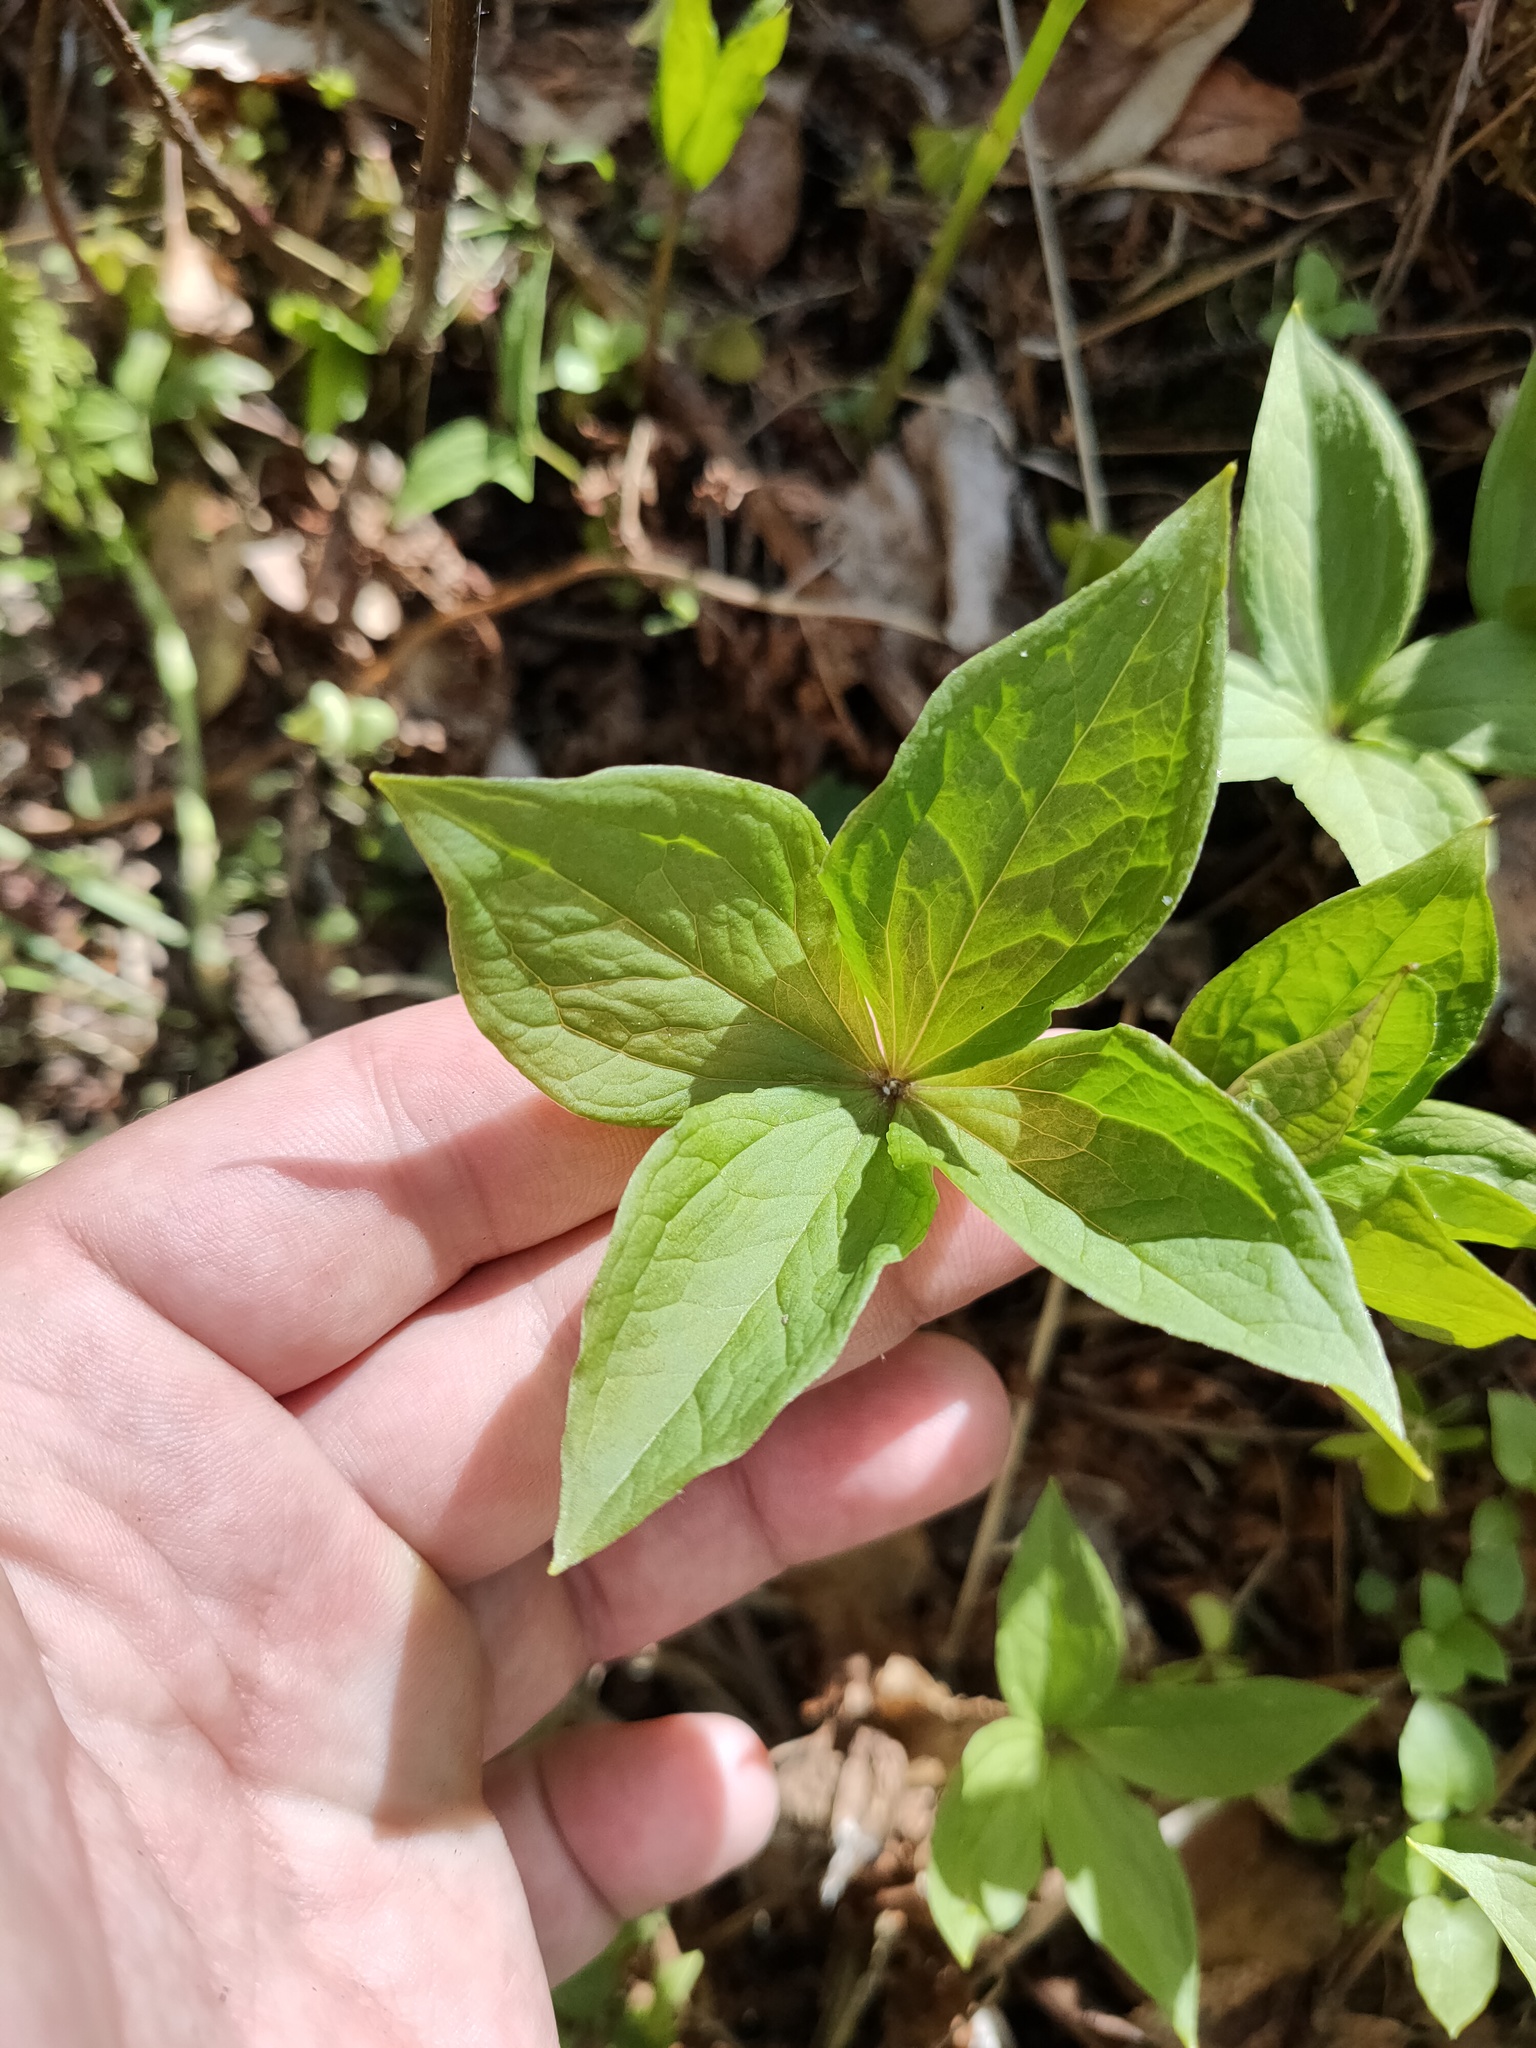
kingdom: Plantae
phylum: Tracheophyta
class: Liliopsida
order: Liliales
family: Melanthiaceae
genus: Paris
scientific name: Paris quadrifolia
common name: Herb-paris
